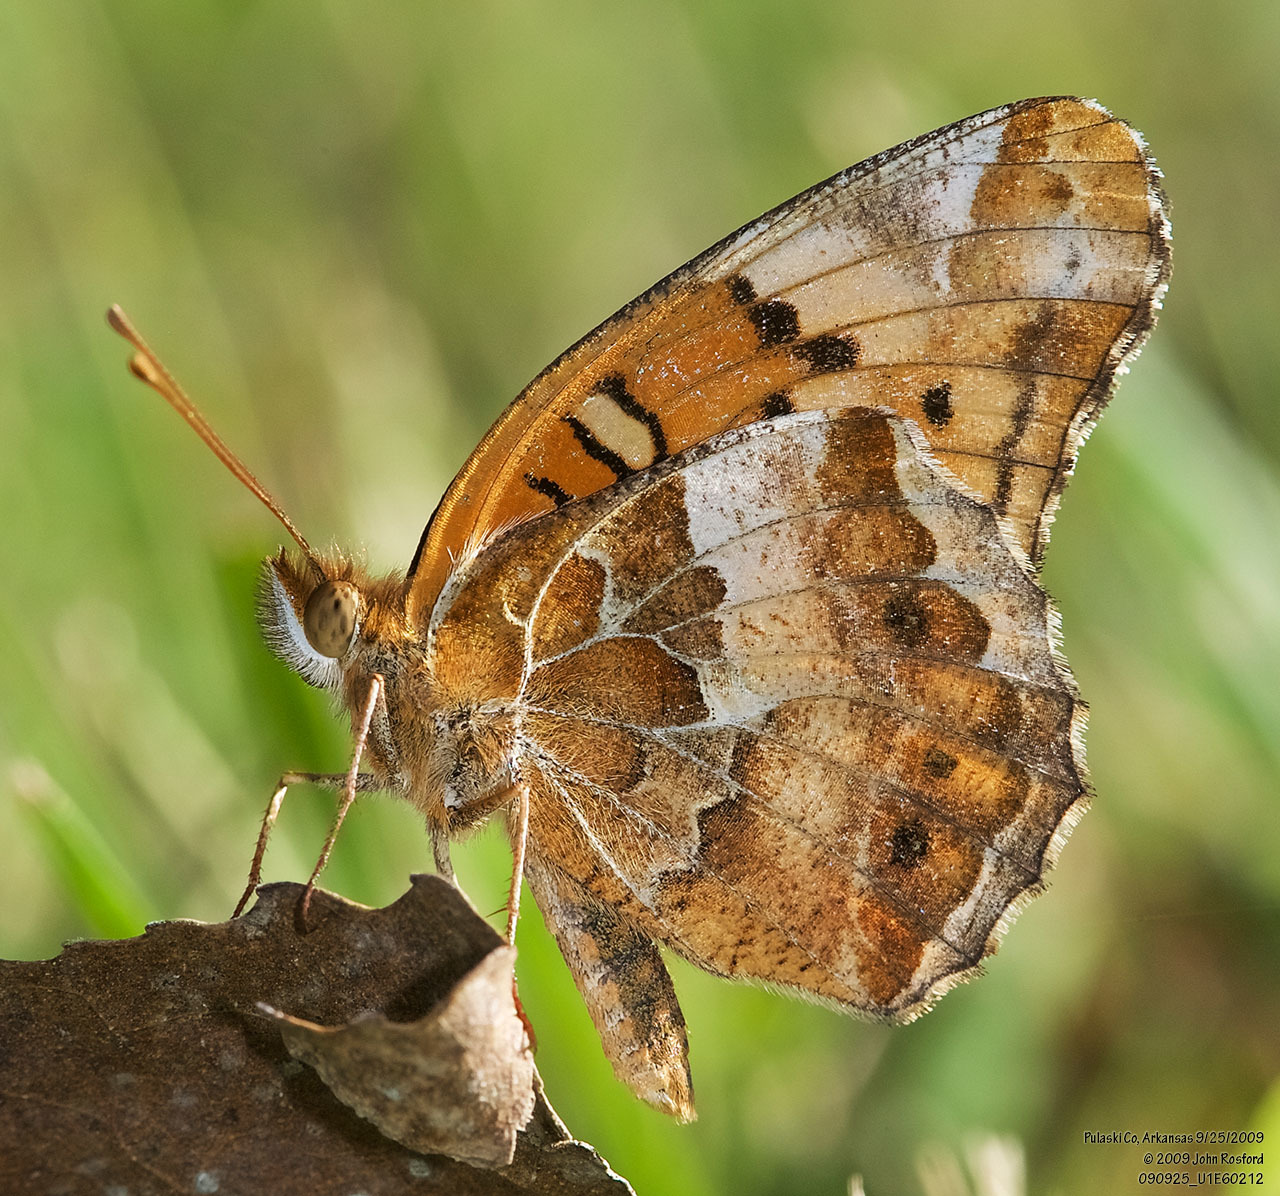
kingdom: Animalia
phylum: Arthropoda
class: Insecta
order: Lepidoptera
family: Nymphalidae
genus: Euptoieta
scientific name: Euptoieta claudia
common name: Variegated fritillary
